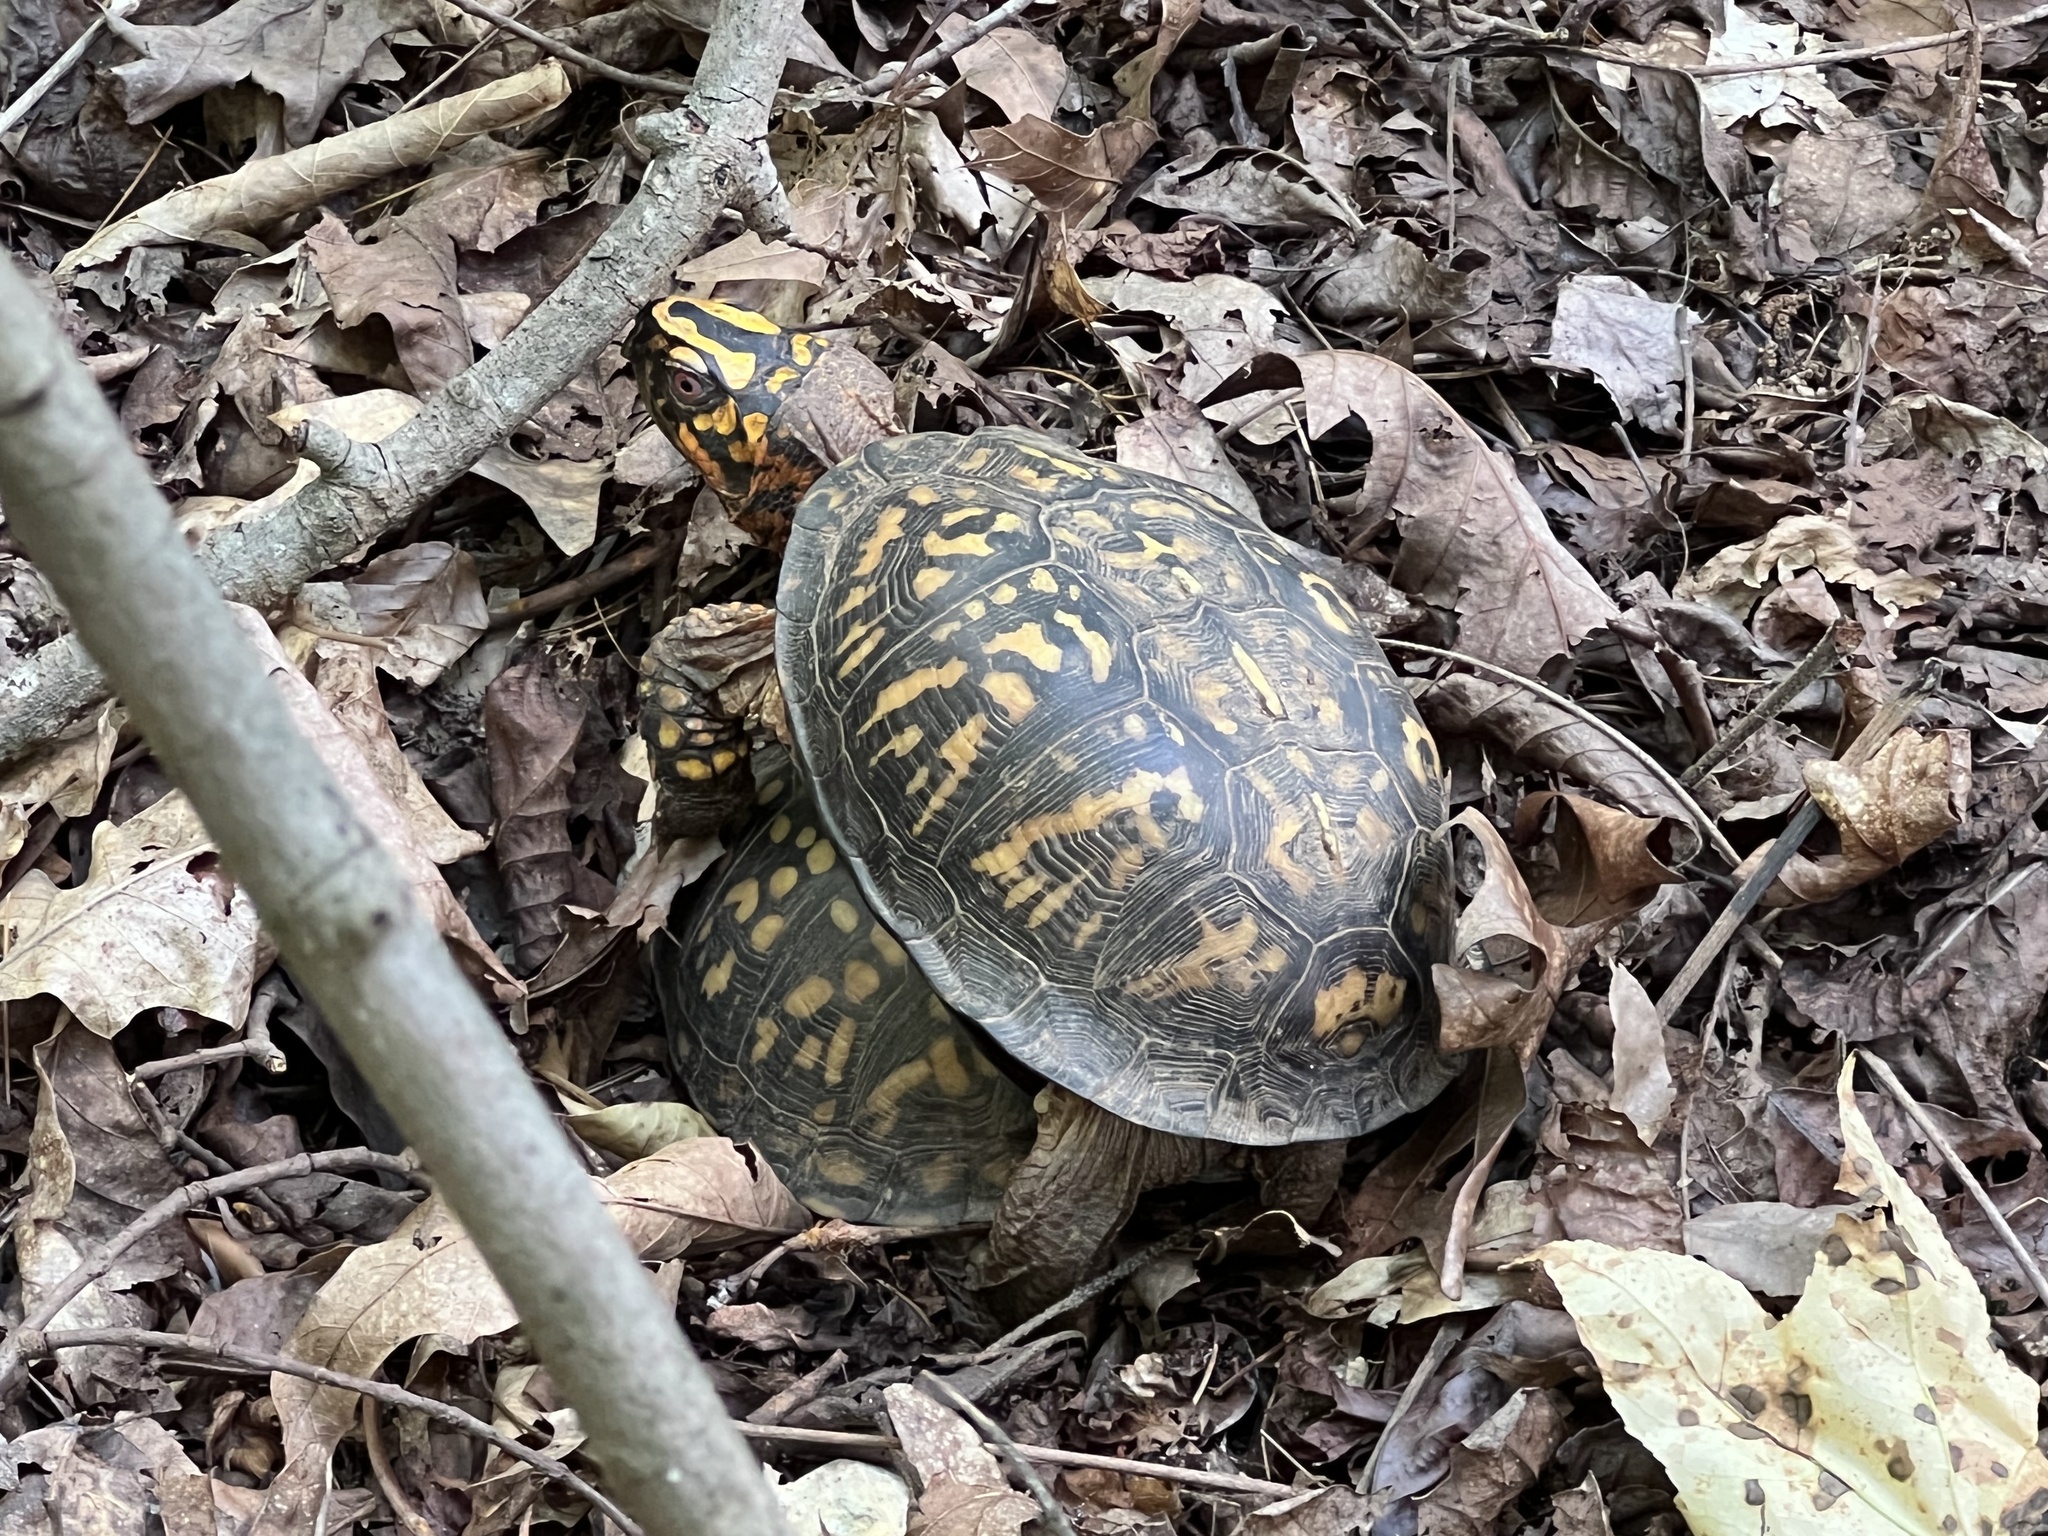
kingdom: Animalia
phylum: Chordata
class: Testudines
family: Emydidae
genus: Terrapene
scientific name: Terrapene carolina
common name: Common box turtle
